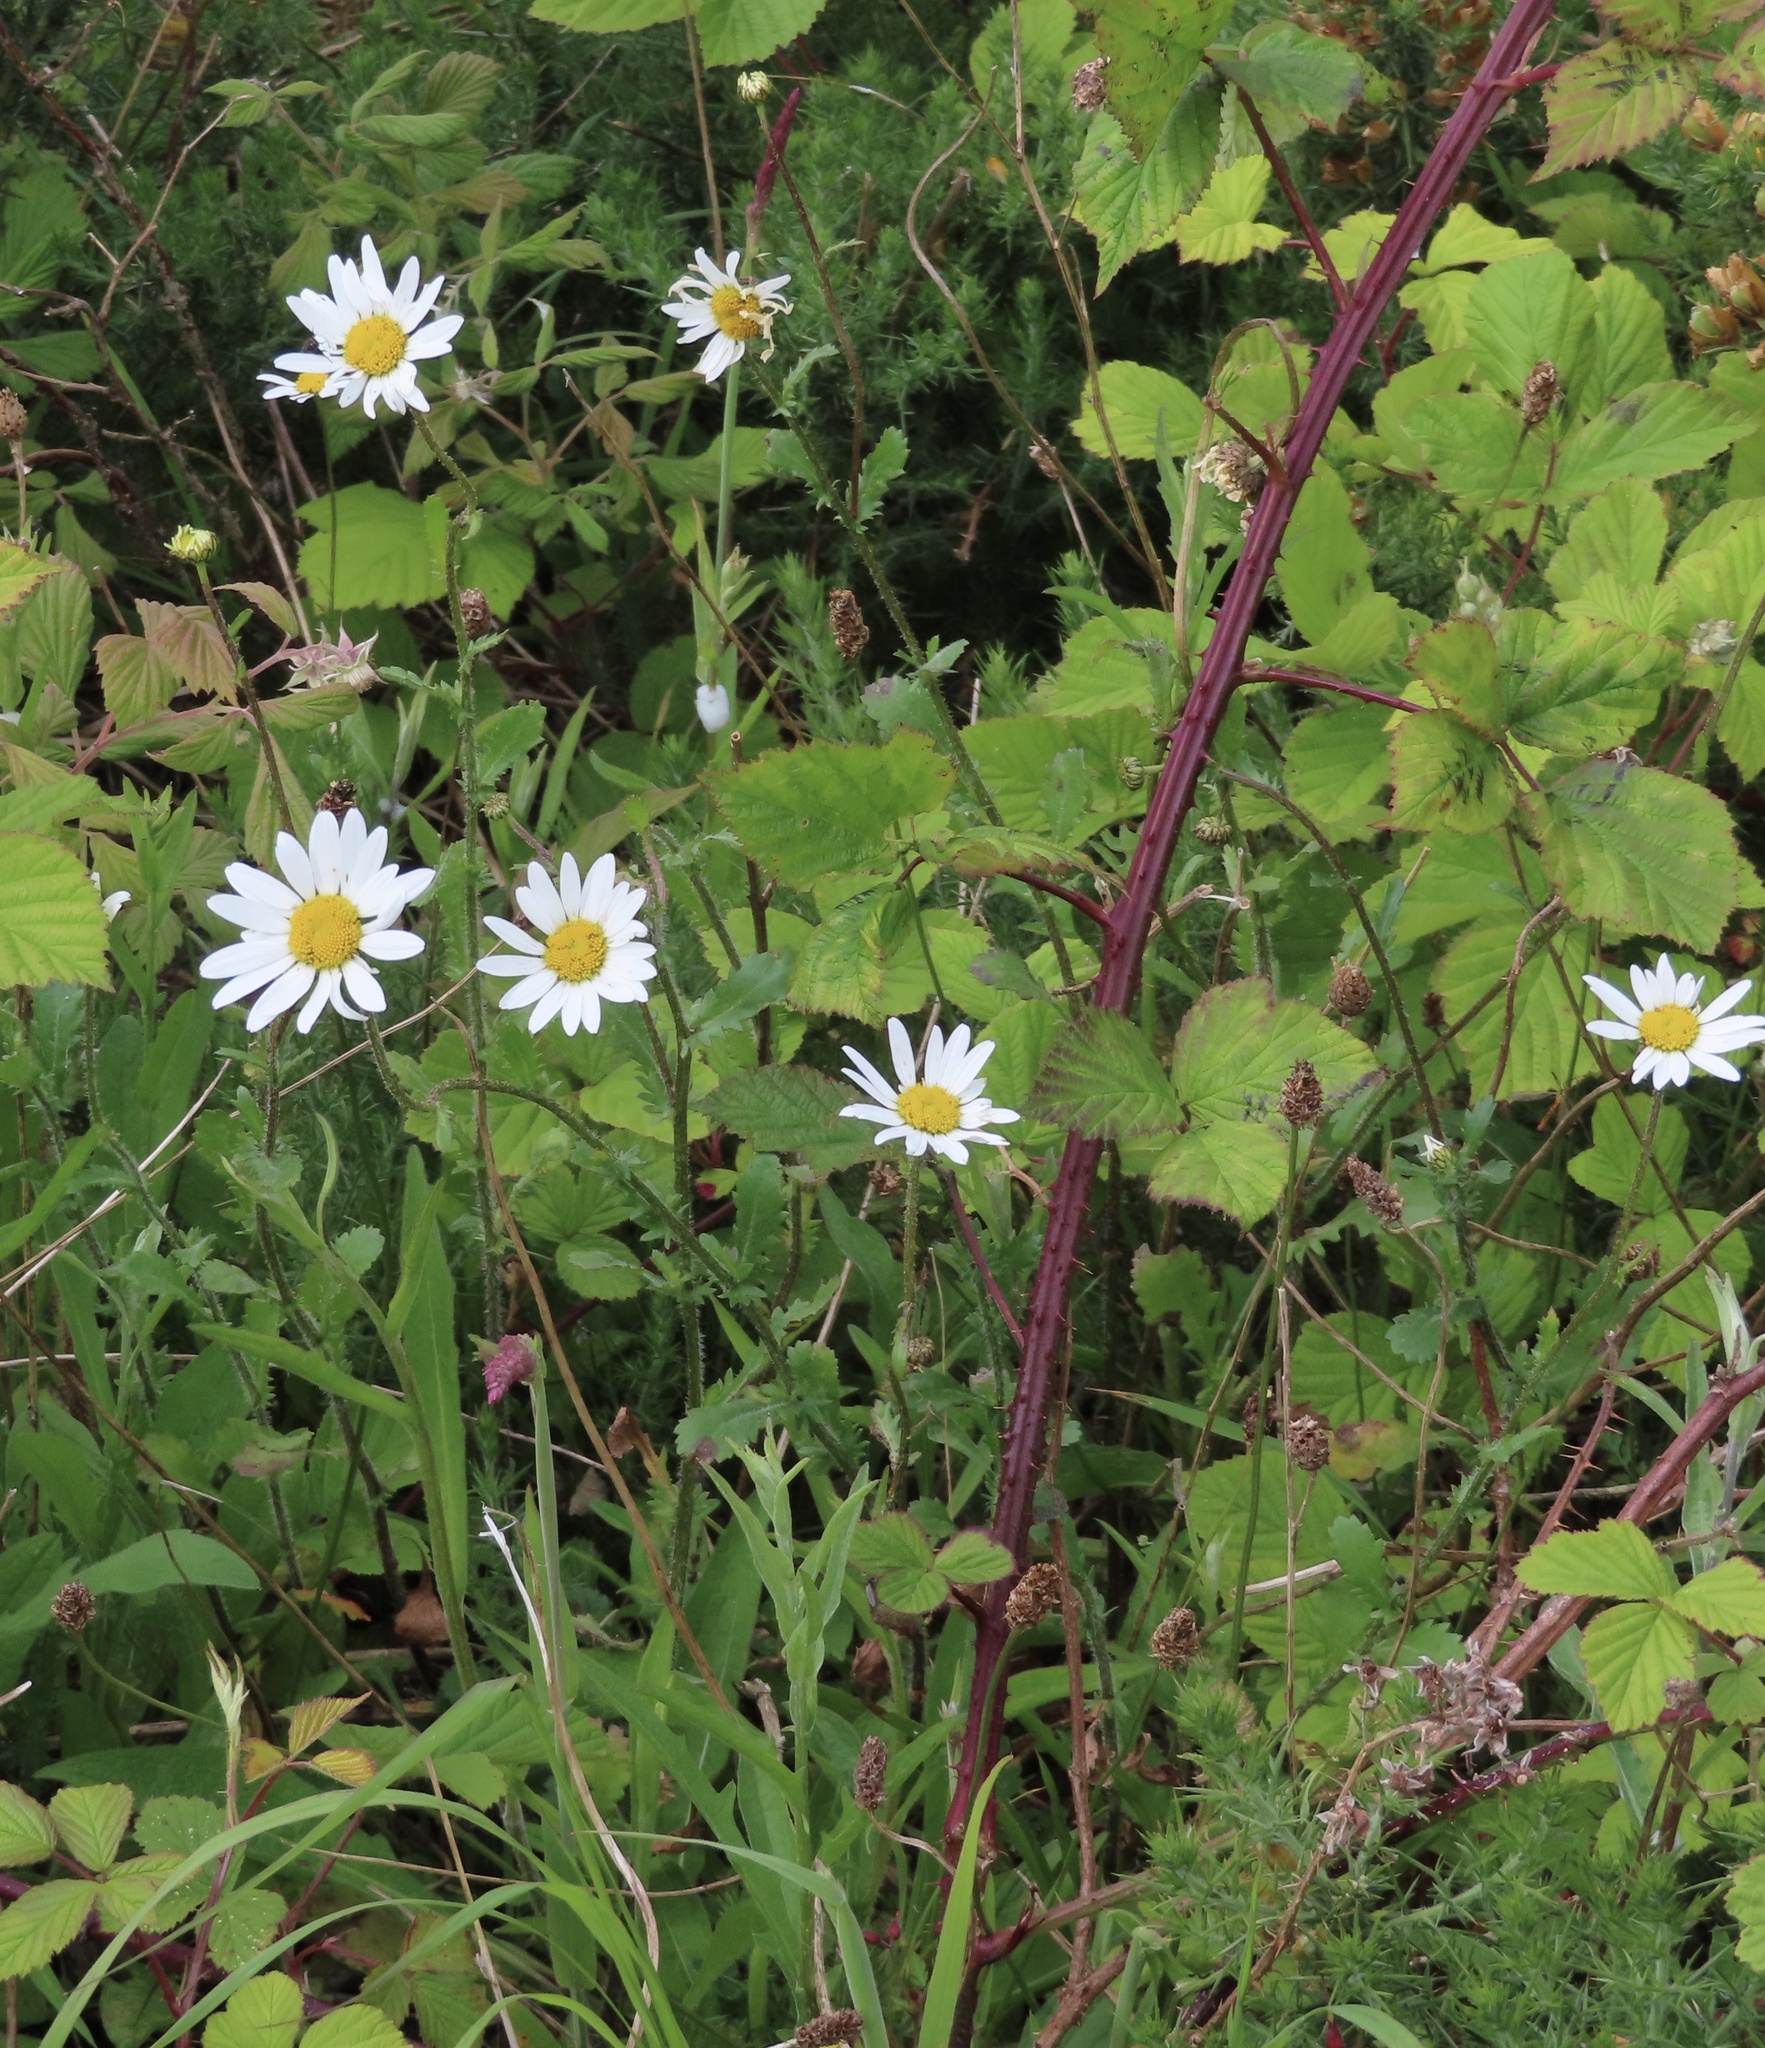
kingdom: Plantae
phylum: Tracheophyta
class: Magnoliopsida
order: Asterales
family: Asteraceae
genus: Leucanthemum
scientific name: Leucanthemum vulgare
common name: Oxeye daisy
